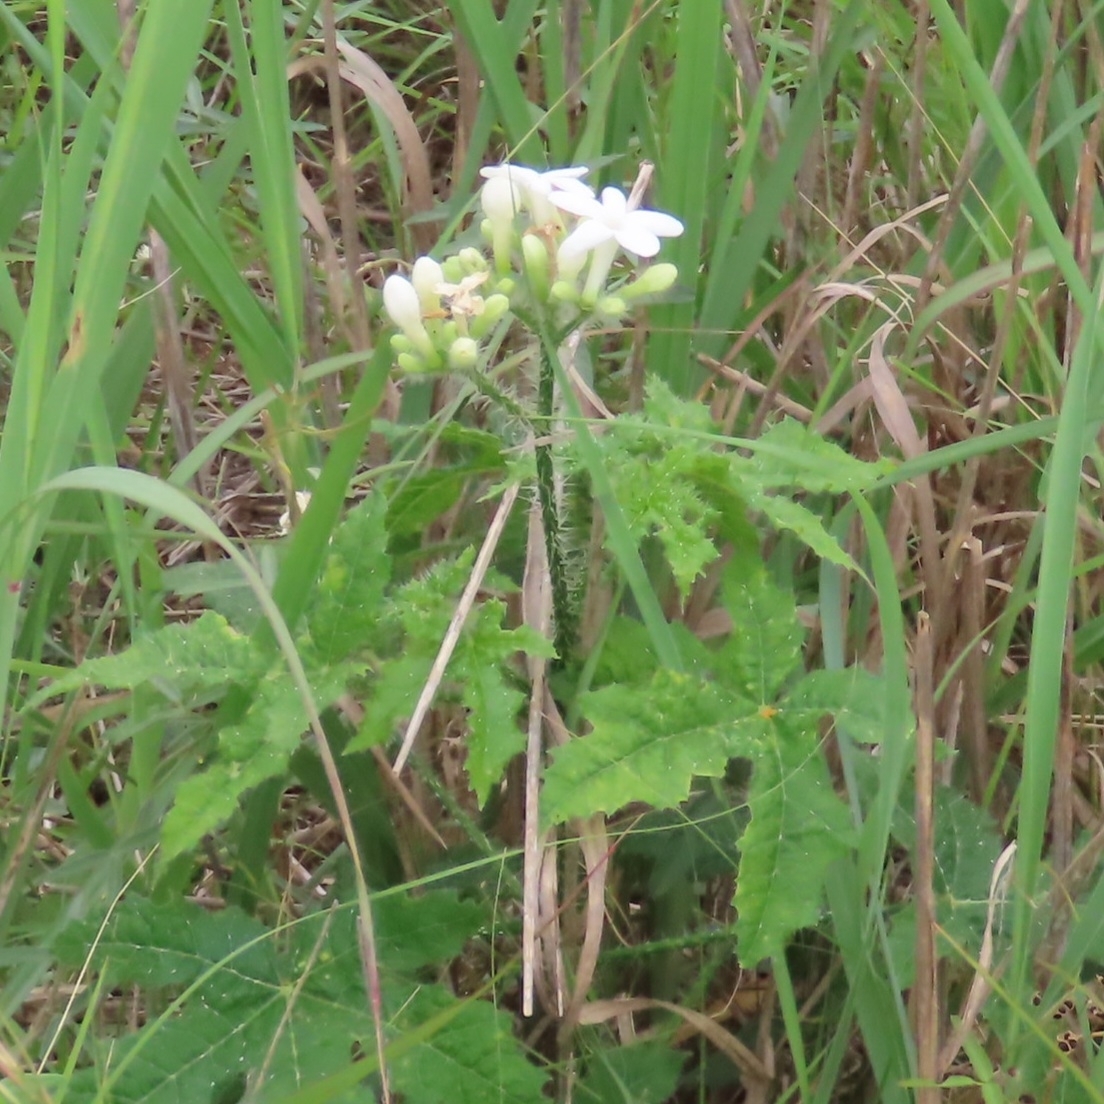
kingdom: Plantae
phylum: Tracheophyta
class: Magnoliopsida
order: Malpighiales
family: Euphorbiaceae
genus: Cnidoscolus
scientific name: Cnidoscolus texanus
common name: Texas bull-nettle
